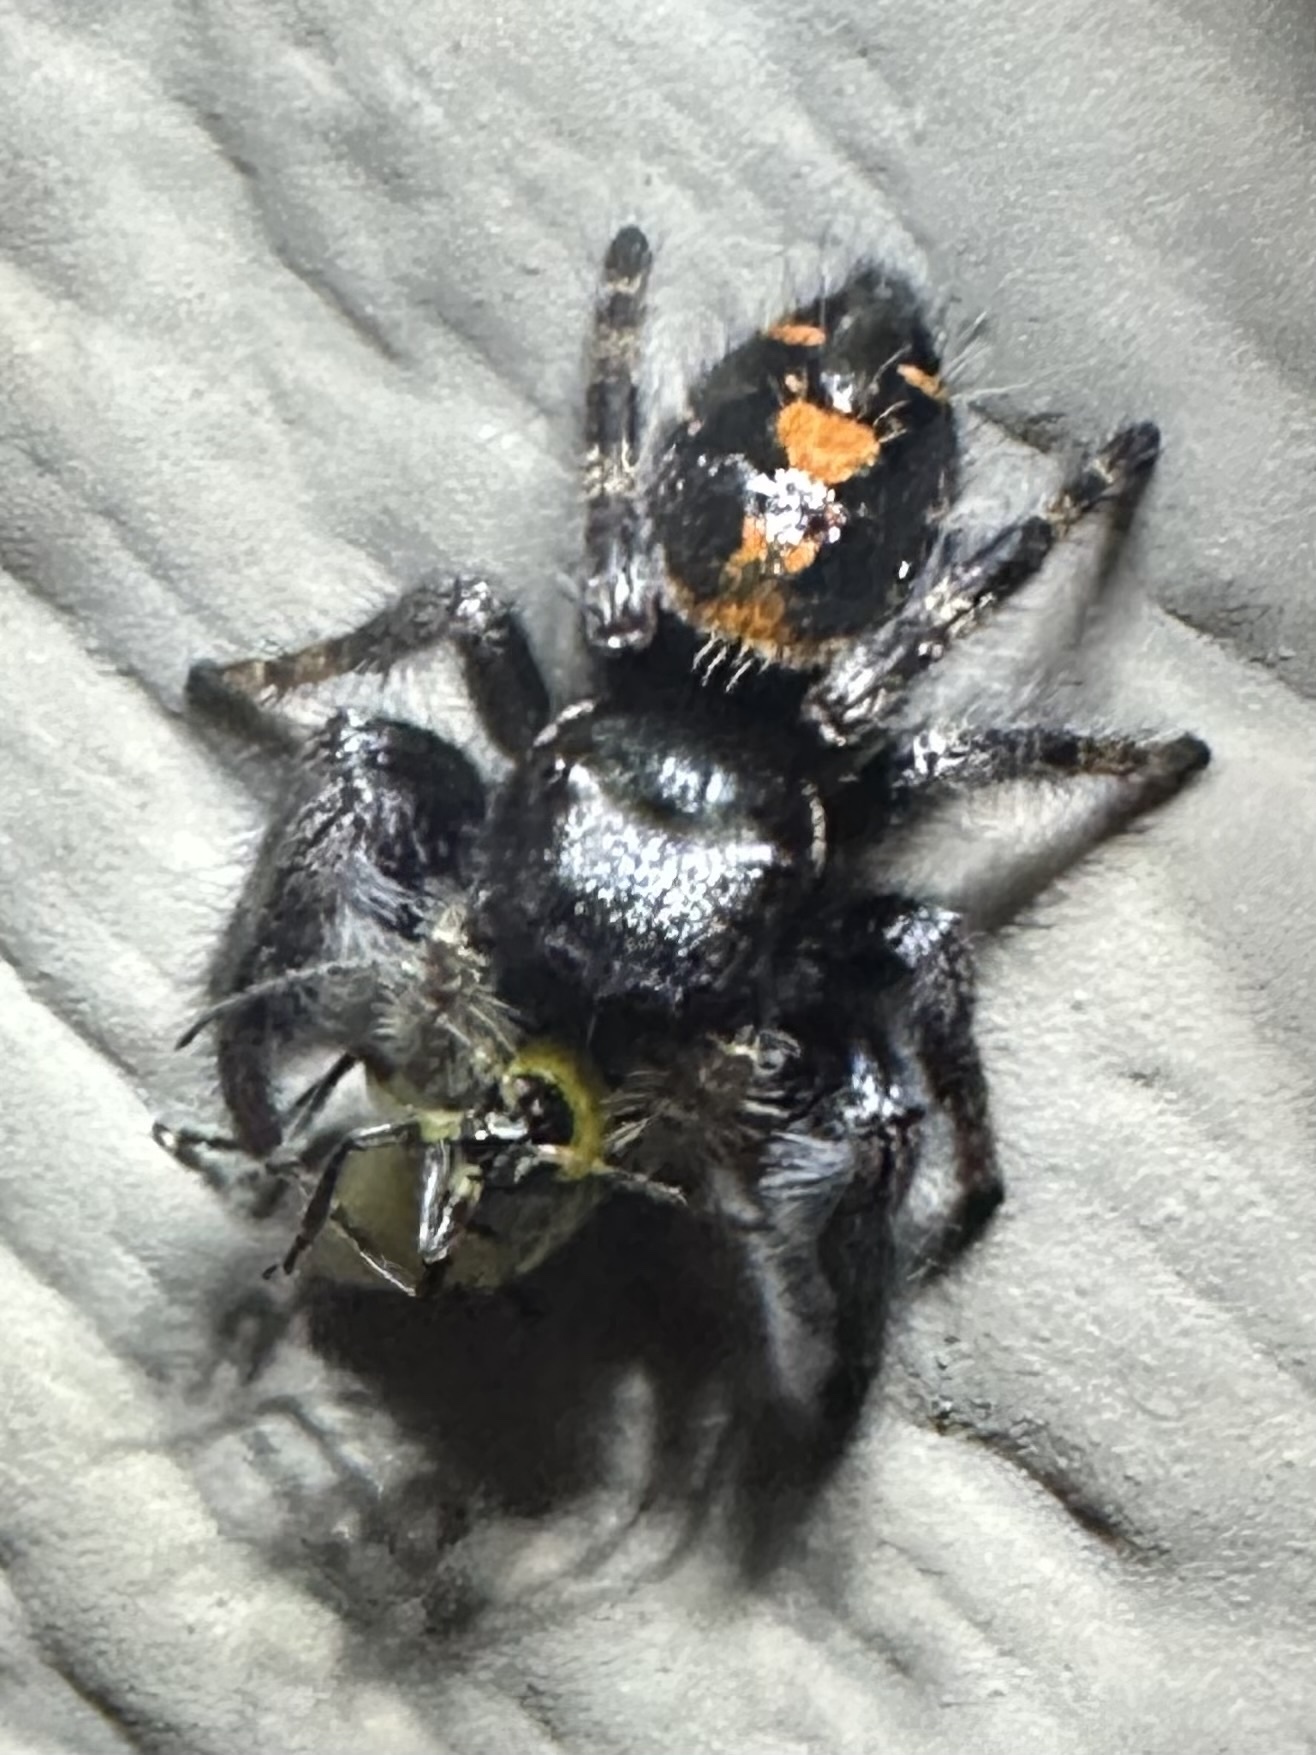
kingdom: Animalia
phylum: Arthropoda
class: Arachnida
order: Araneae
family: Salticidae
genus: Phidippus
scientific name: Phidippus audax
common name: Bold jumper
